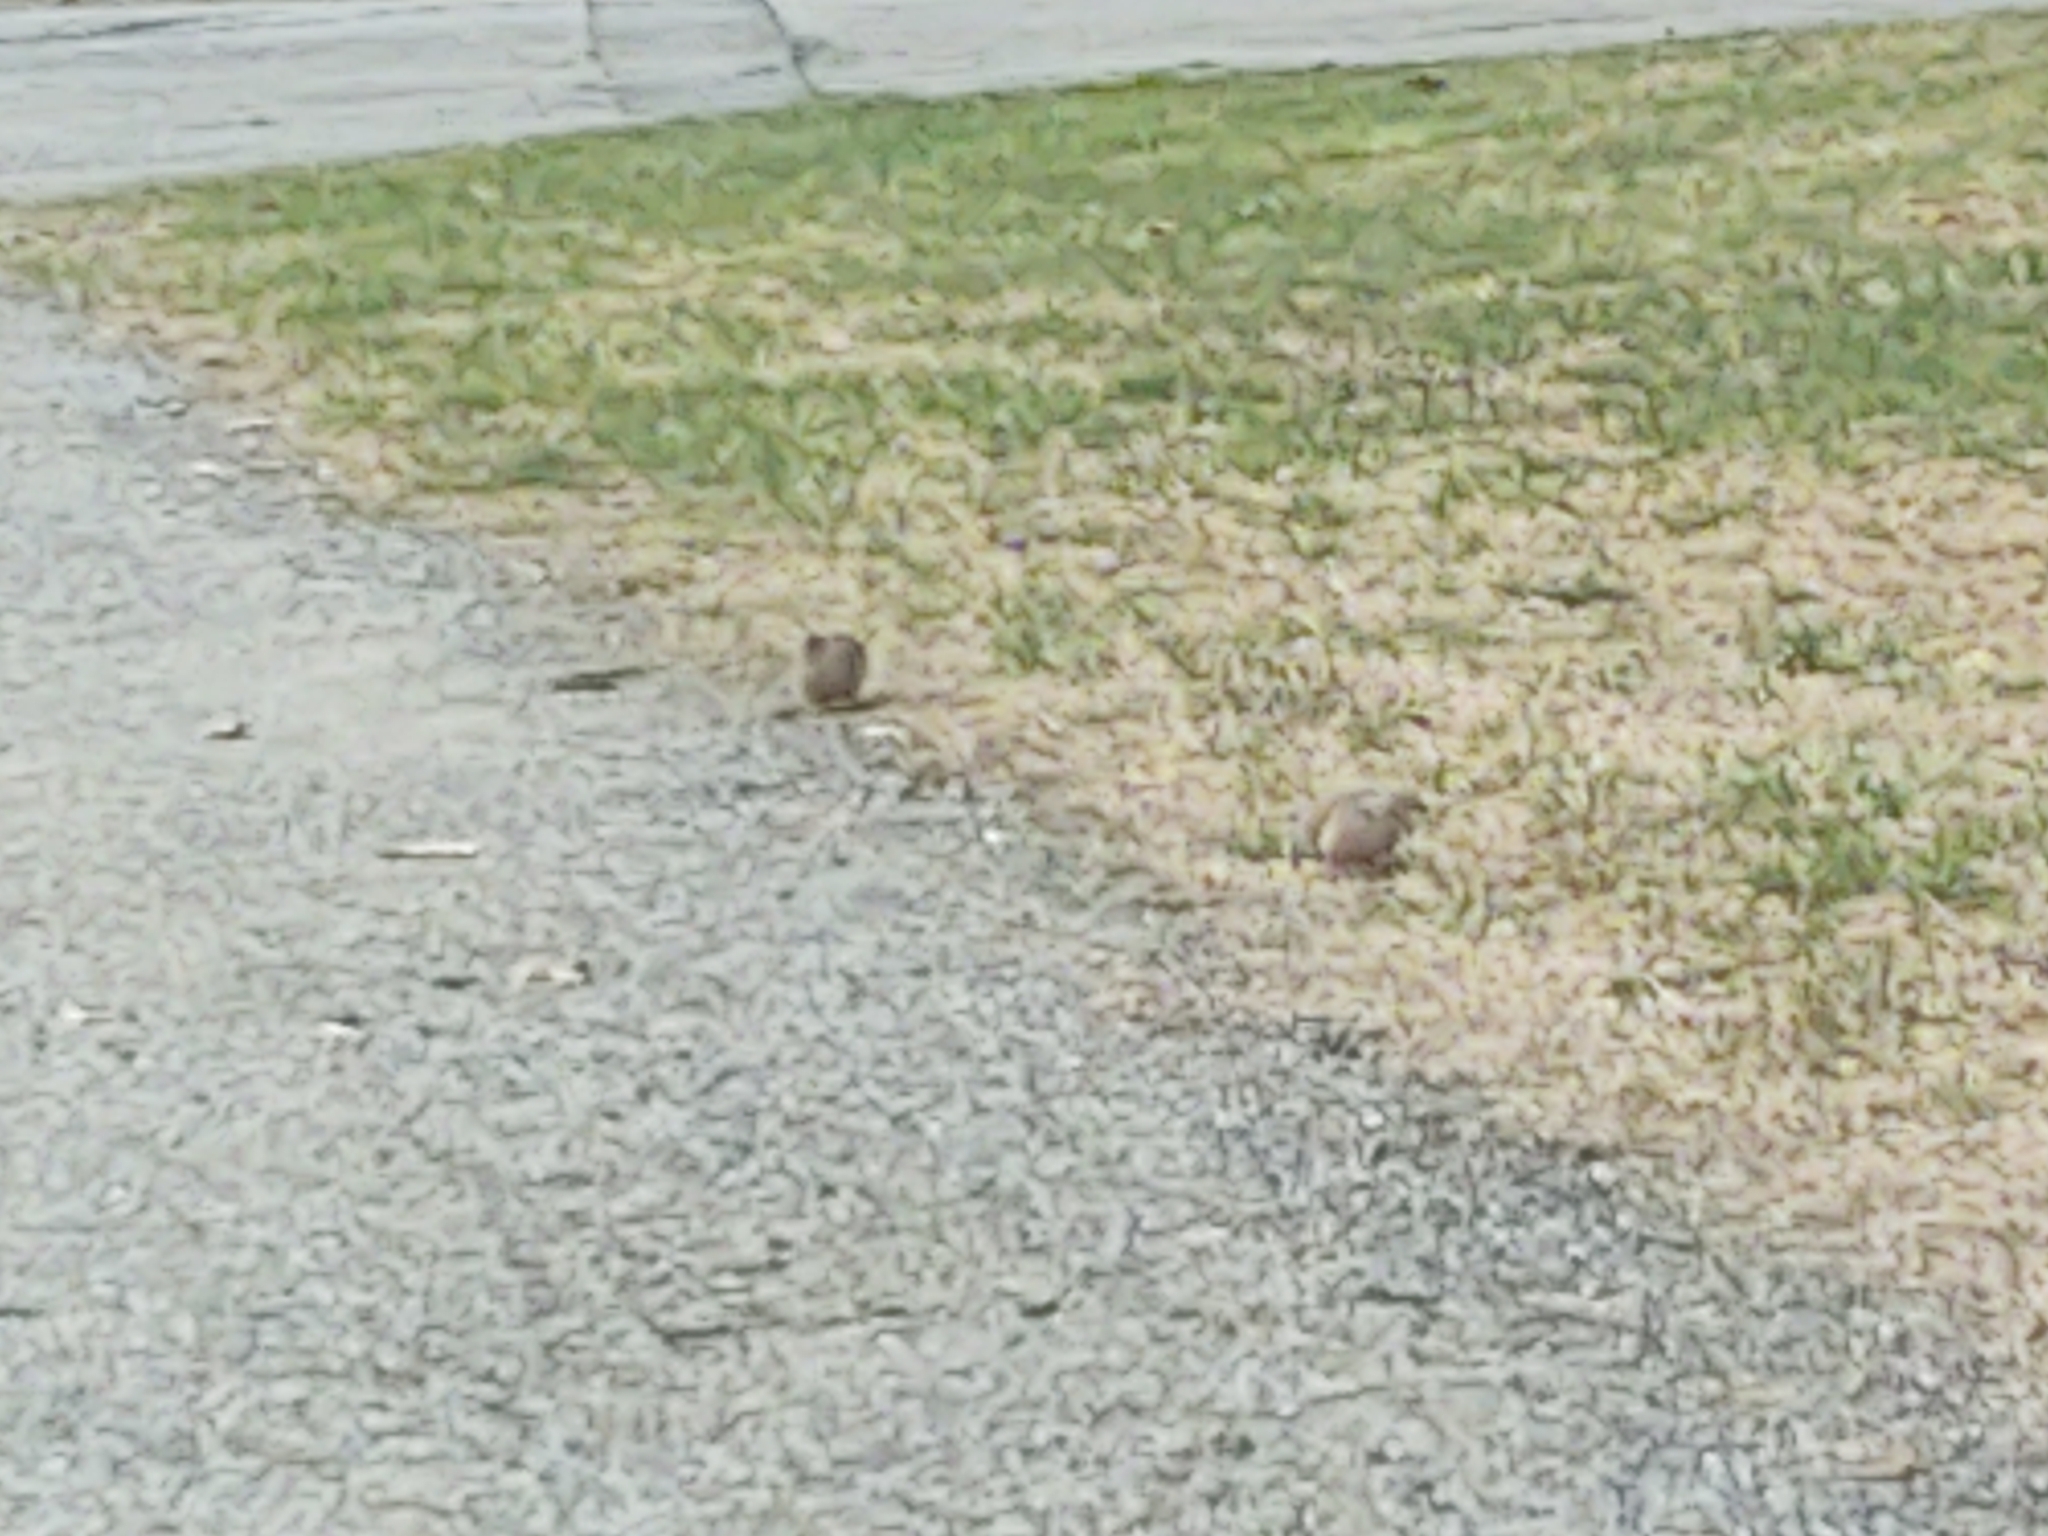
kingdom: Animalia
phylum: Chordata
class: Aves
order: Columbiformes
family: Columbidae
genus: Zenaida
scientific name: Zenaida macroura
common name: Mourning dove
